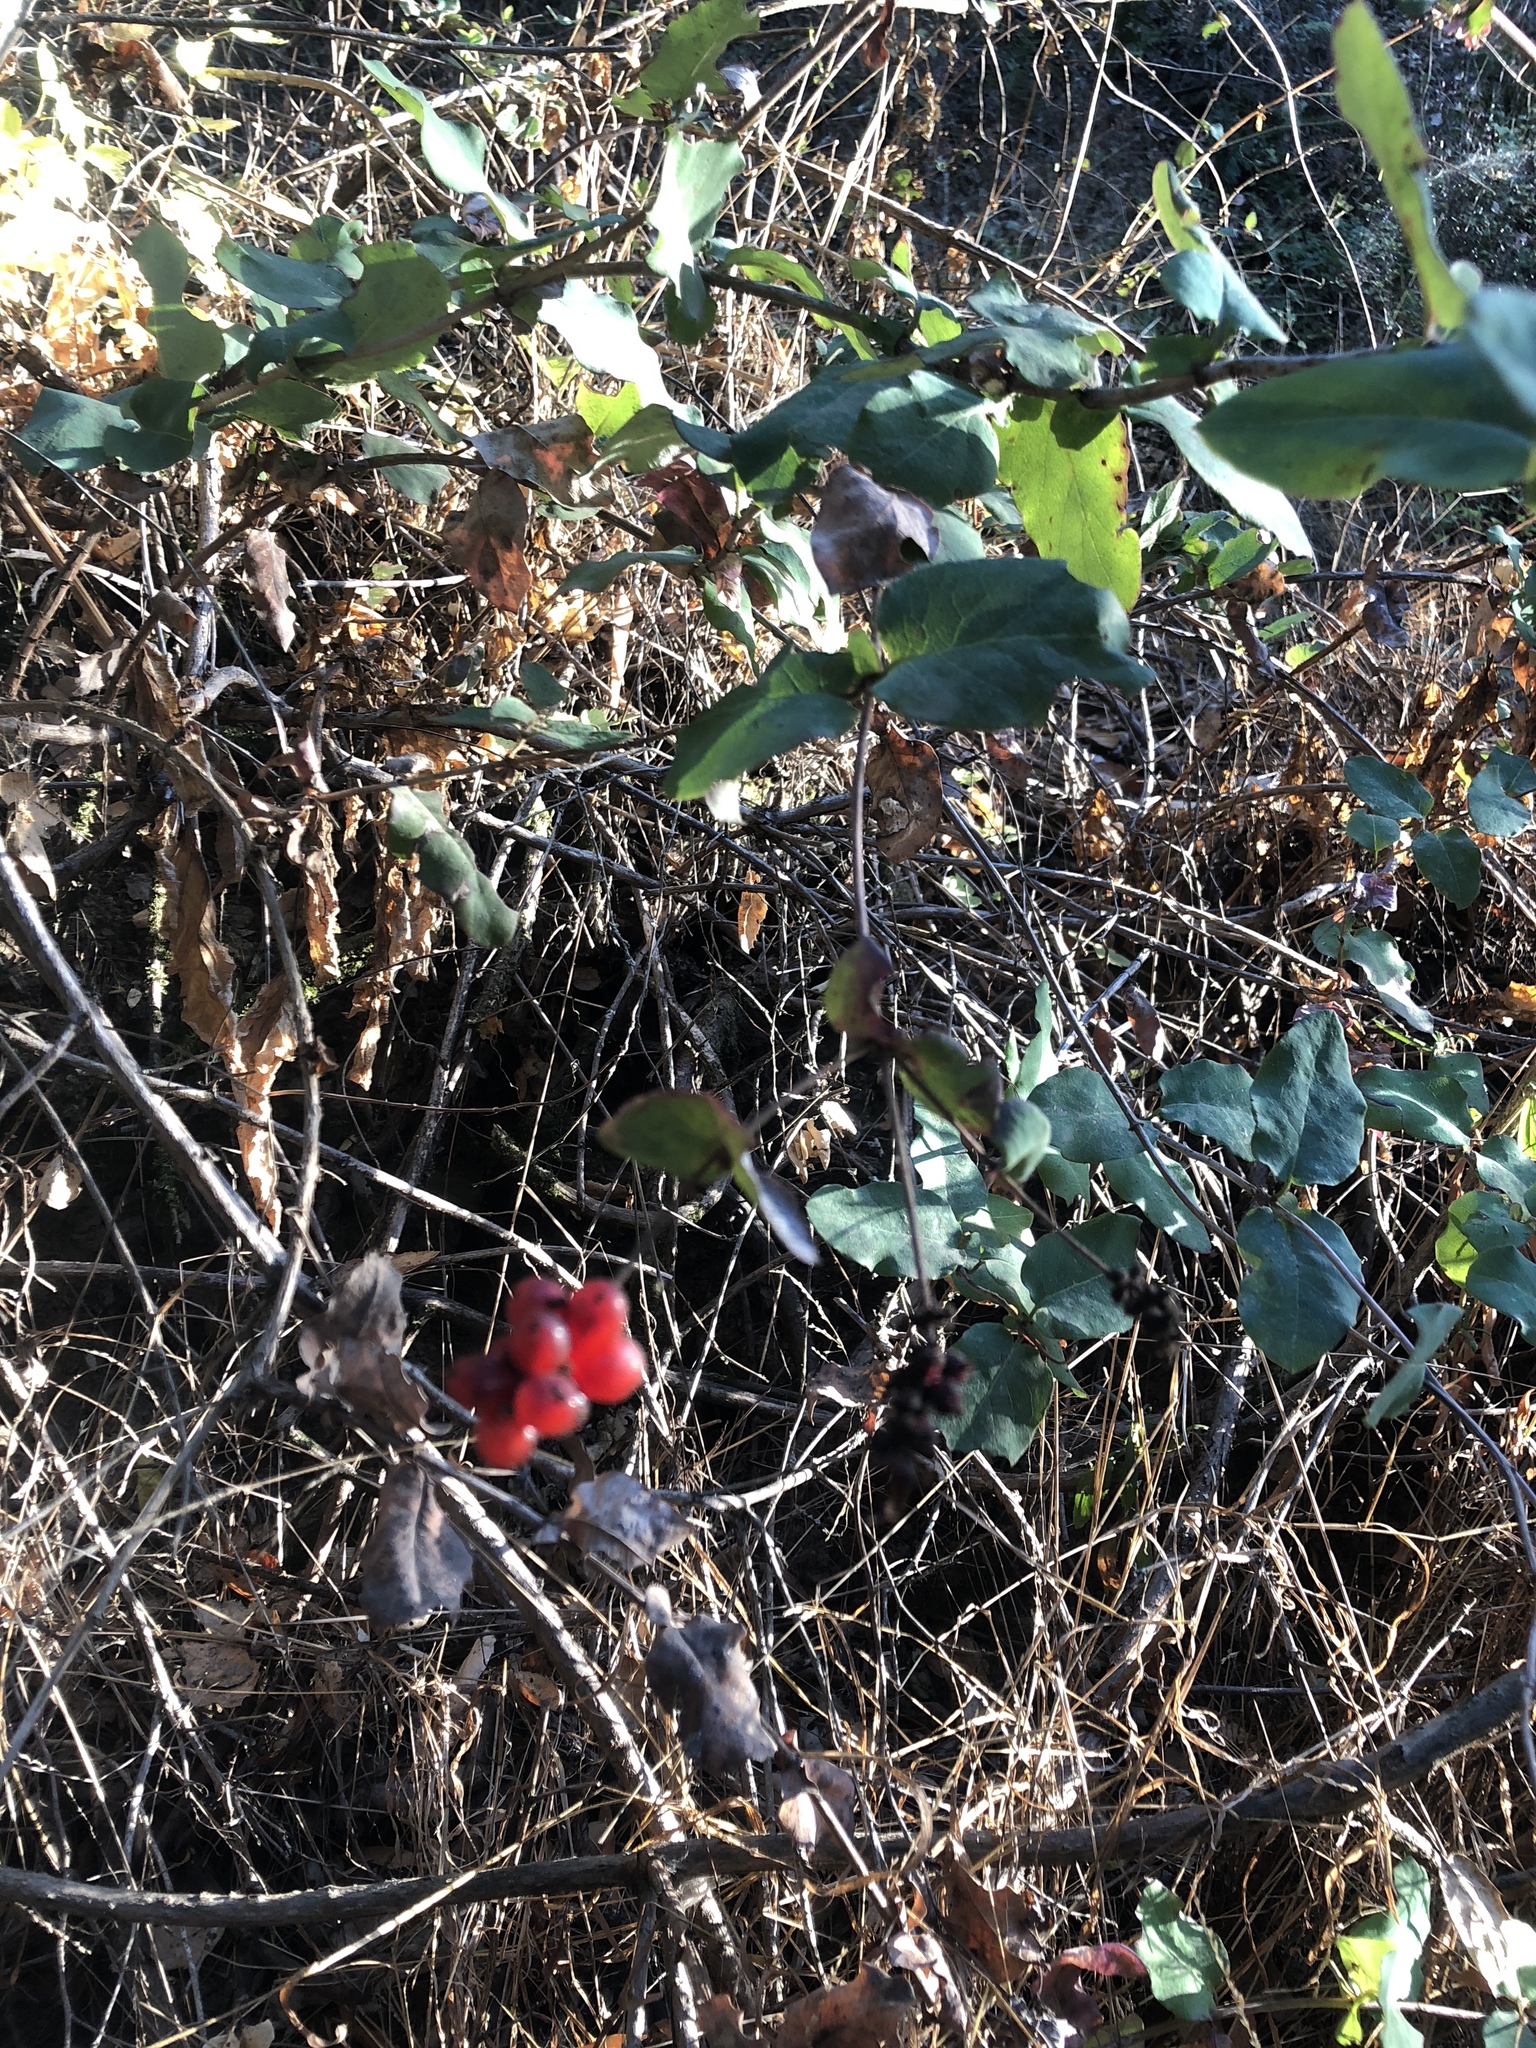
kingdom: Plantae
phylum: Tracheophyta
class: Magnoliopsida
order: Dipsacales
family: Caprifoliaceae
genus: Lonicera
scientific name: Lonicera hispidula
